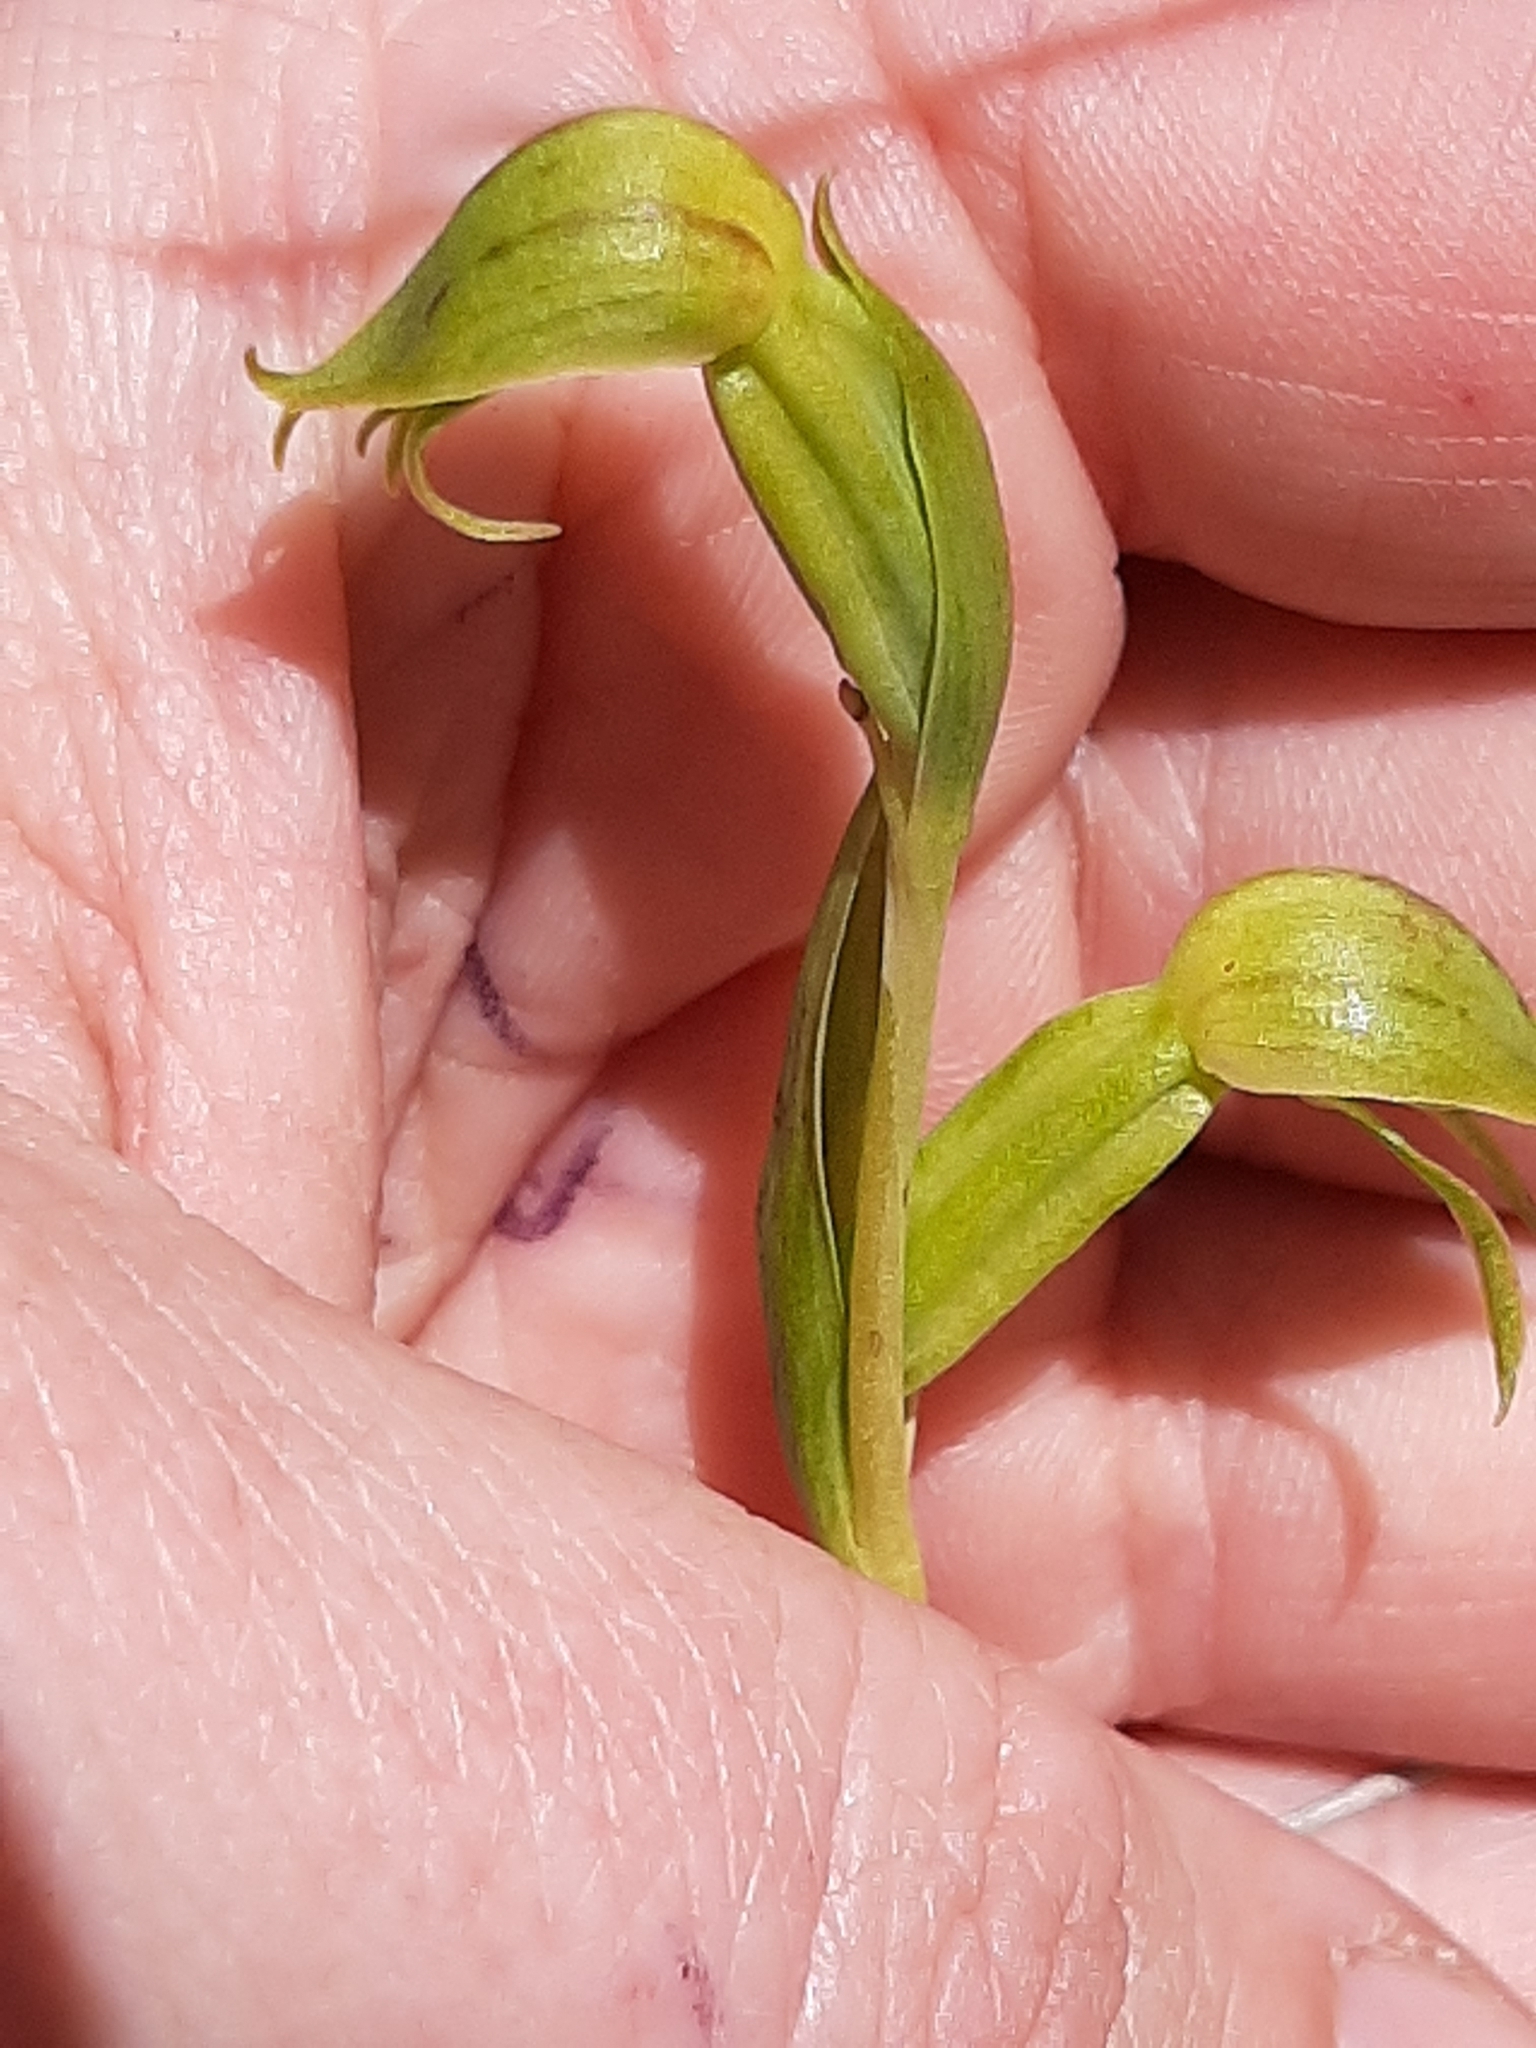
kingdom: Plantae
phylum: Tracheophyta
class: Liliopsida
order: Asparagales
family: Orchidaceae
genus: Waireia
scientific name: Waireia stenopetala
